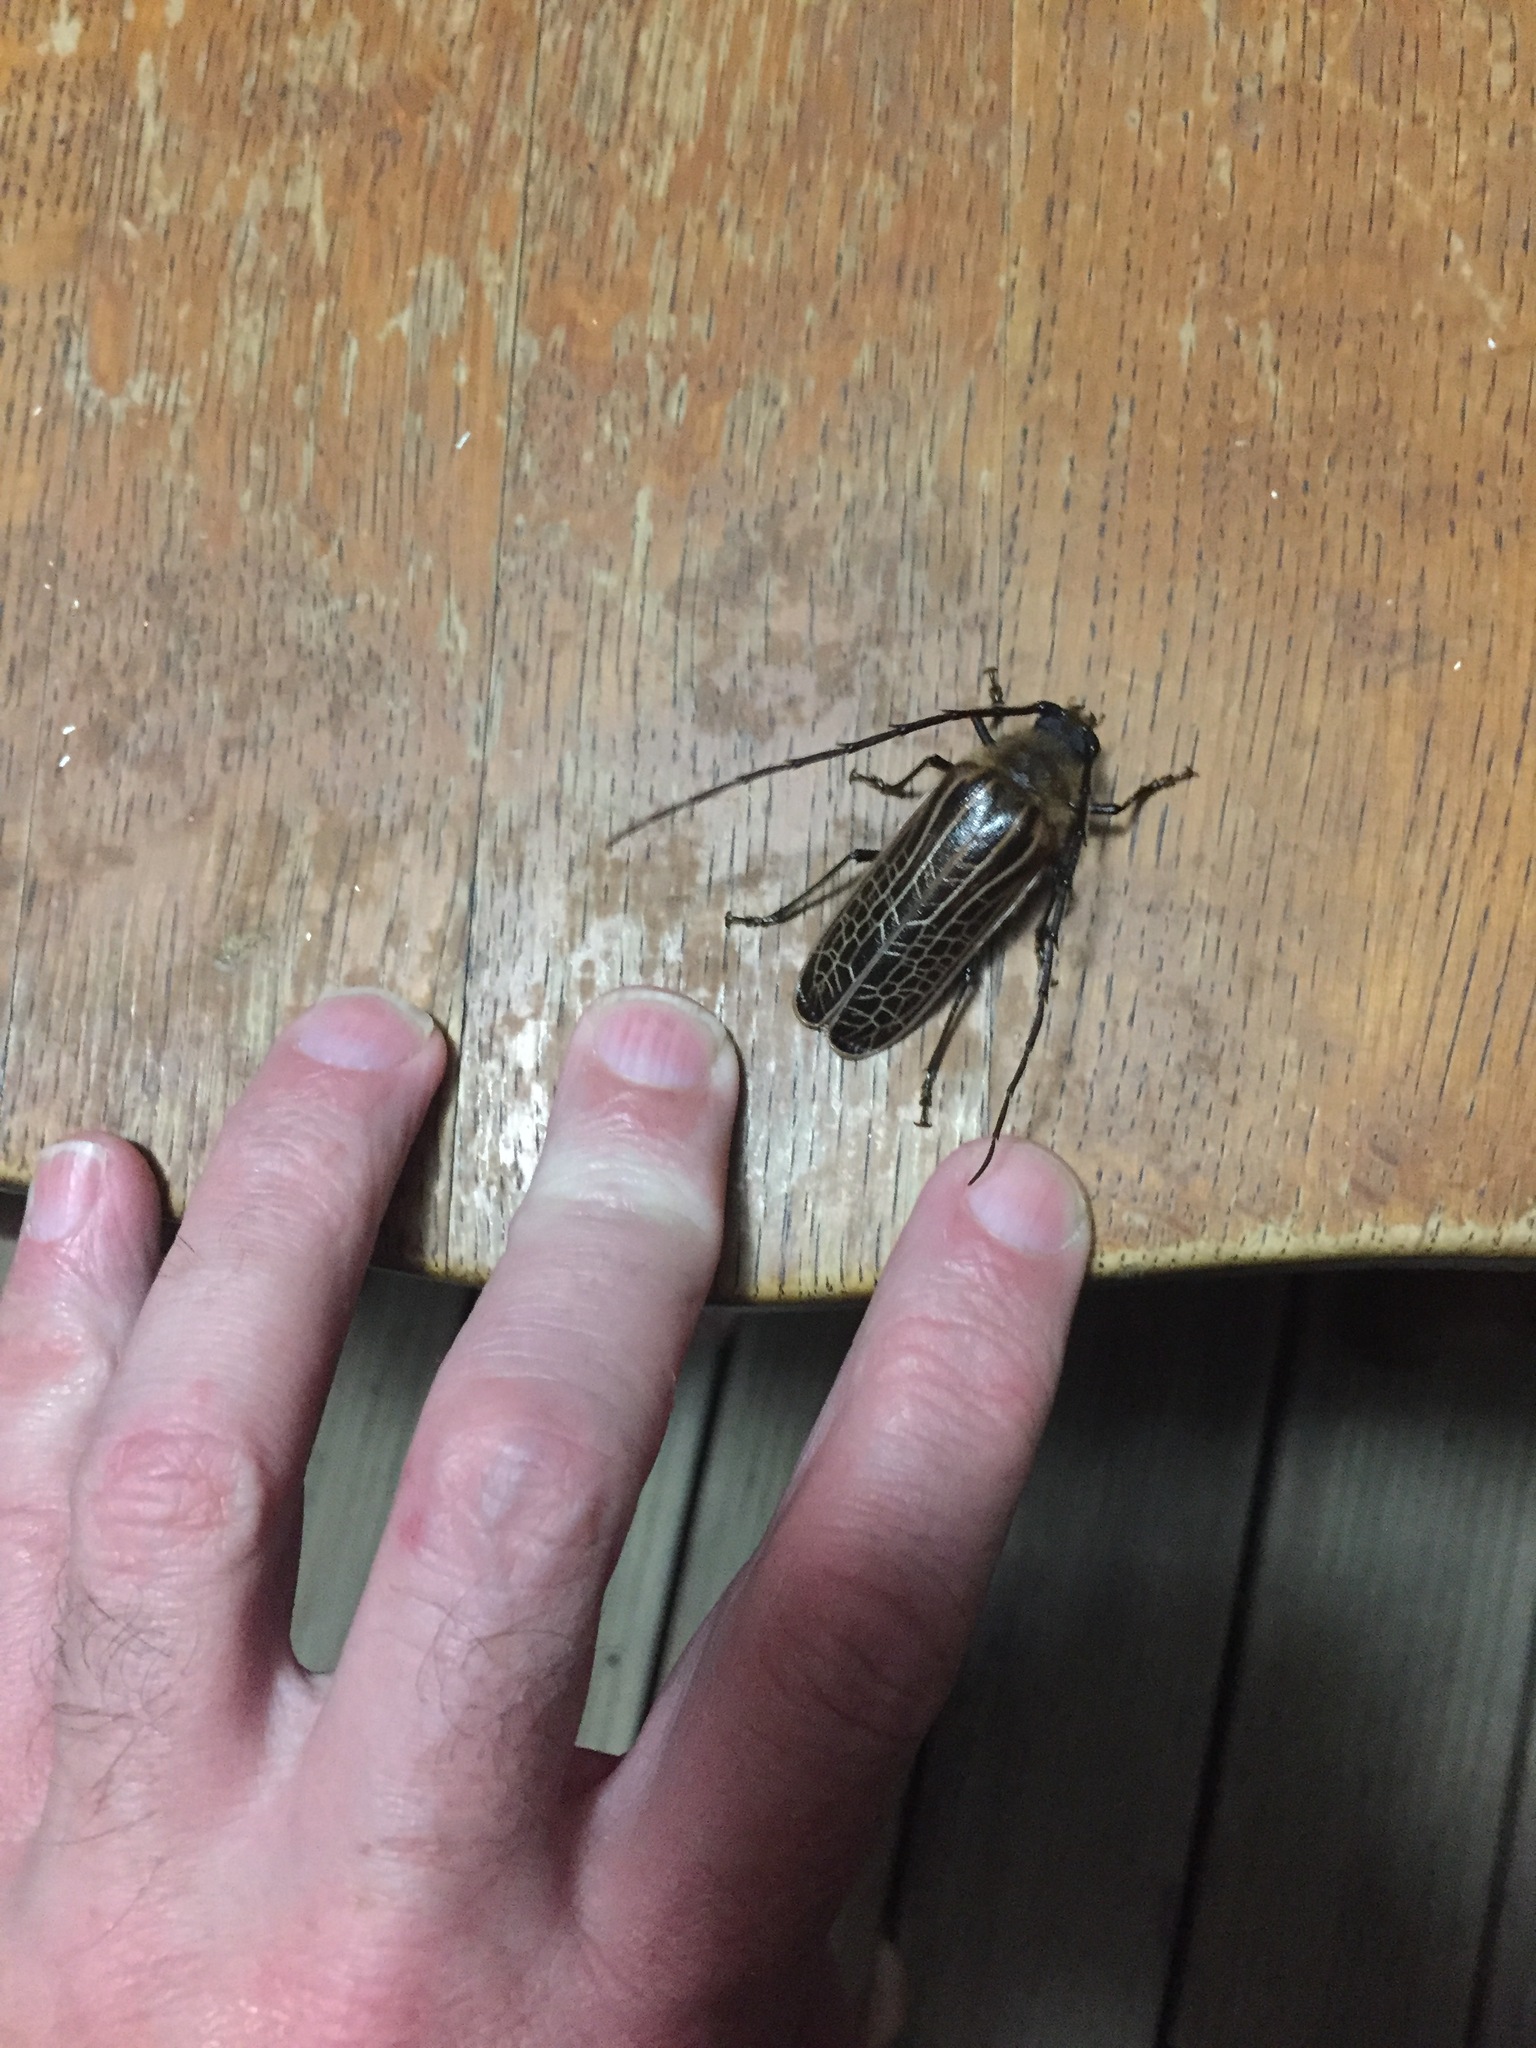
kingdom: Animalia
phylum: Arthropoda
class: Insecta
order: Coleoptera
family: Cerambycidae
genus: Prionoplus
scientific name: Prionoplus reticularis
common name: Huhu beetle
